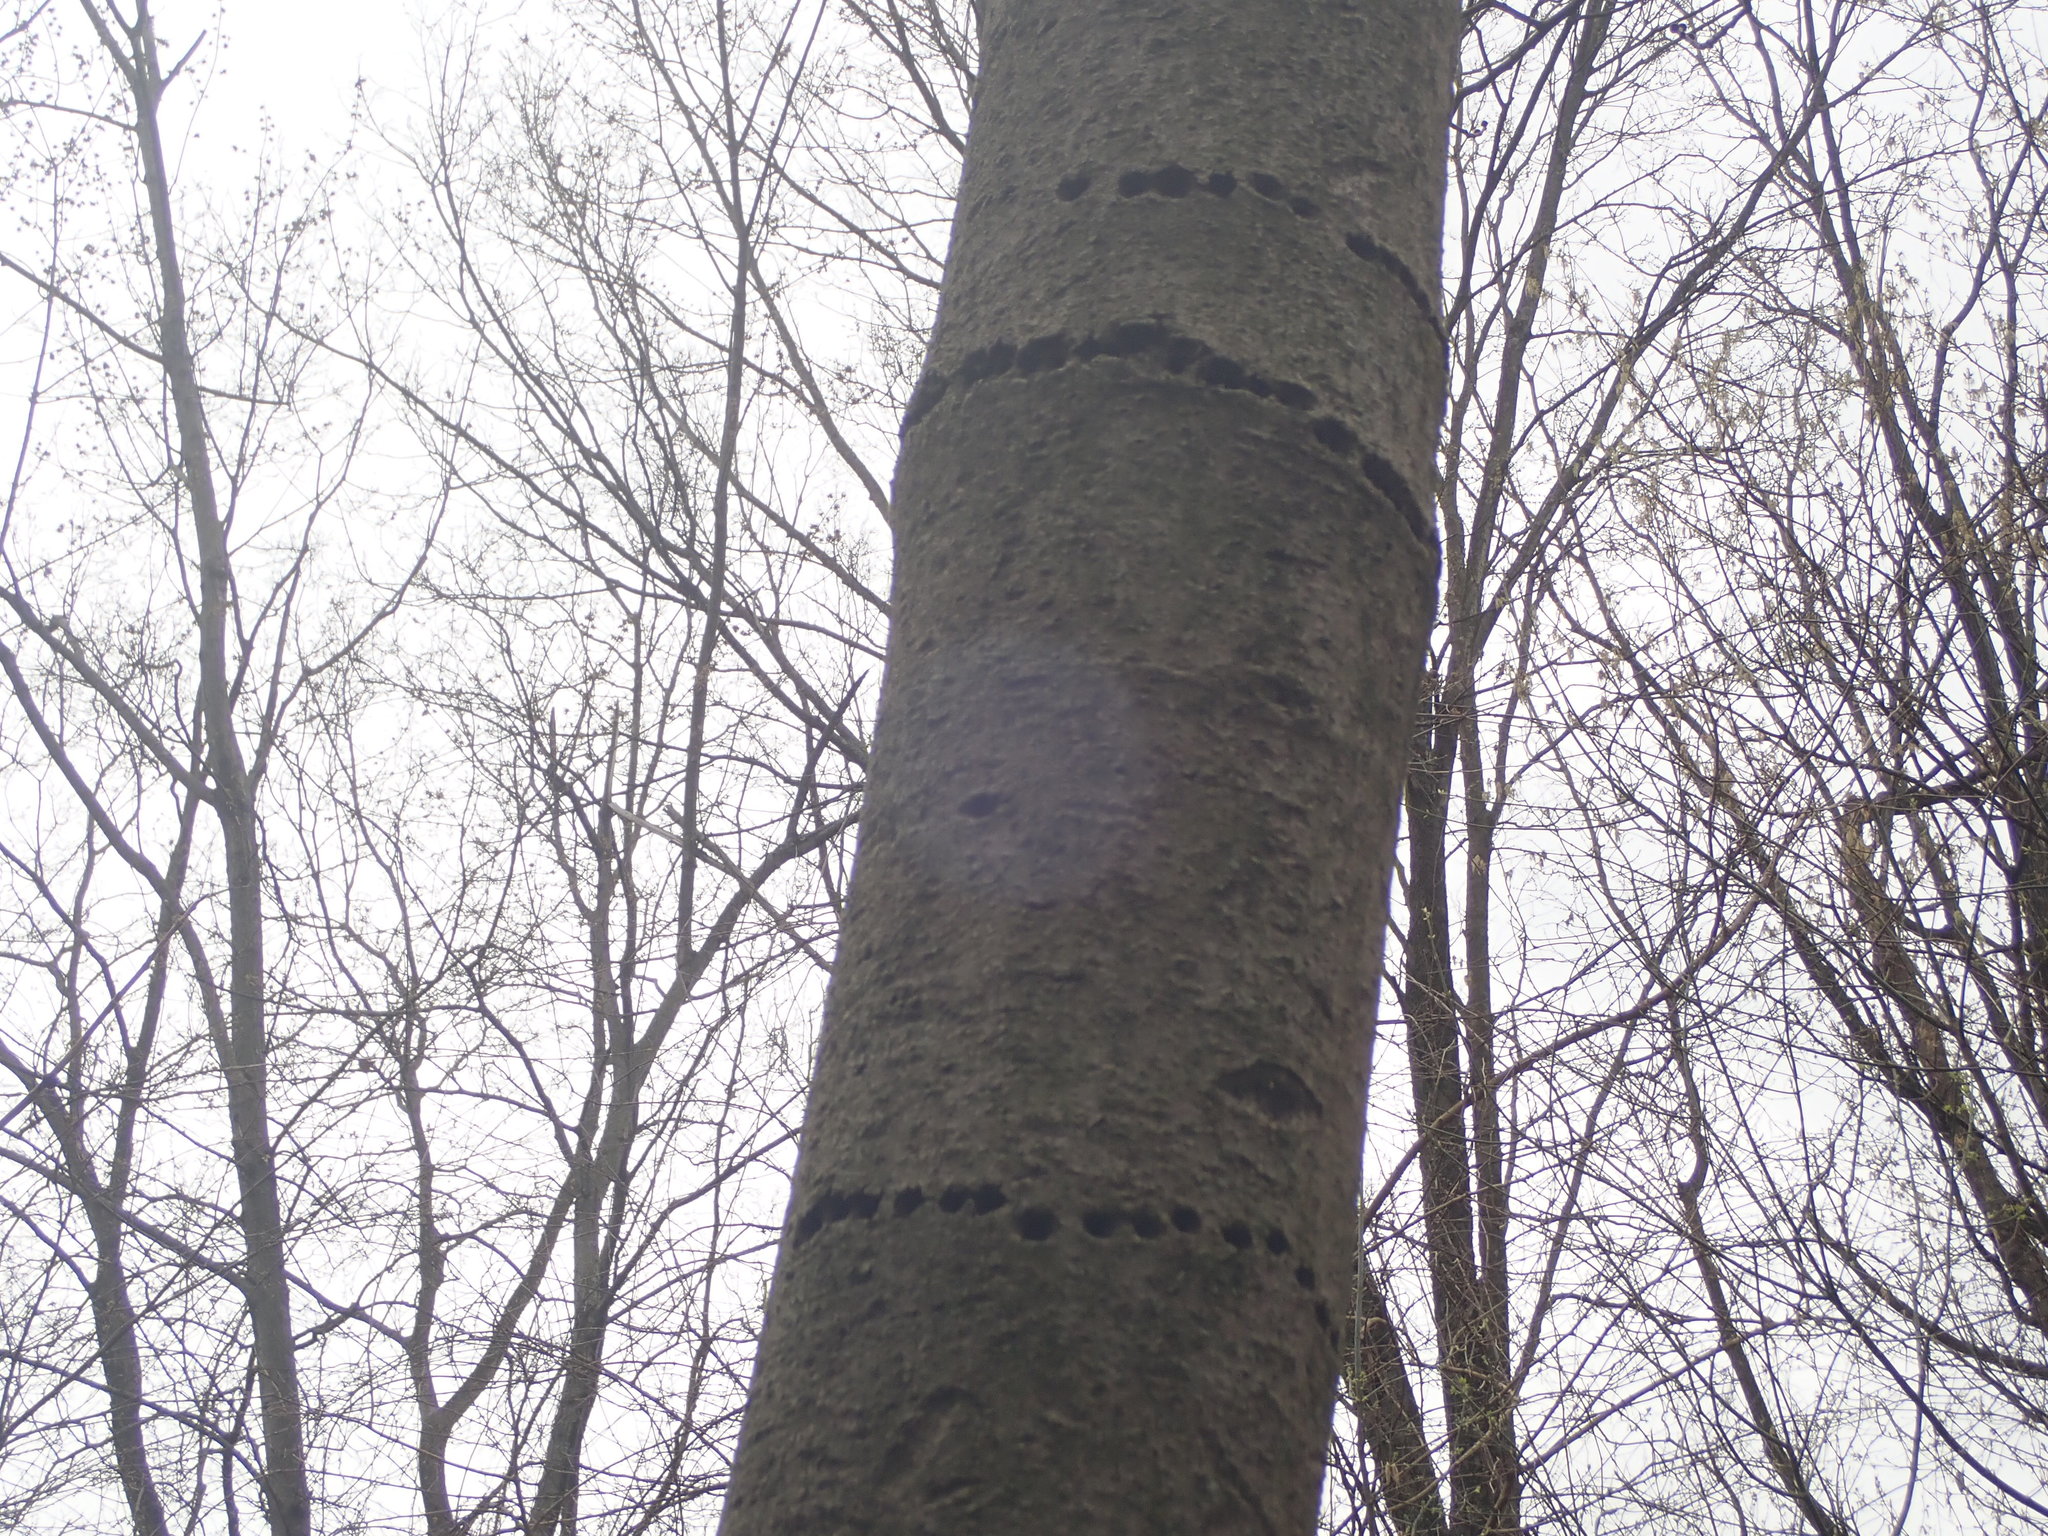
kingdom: Animalia
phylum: Chordata
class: Aves
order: Piciformes
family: Picidae
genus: Sphyrapicus
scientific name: Sphyrapicus varius
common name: Yellow-bellied sapsucker
